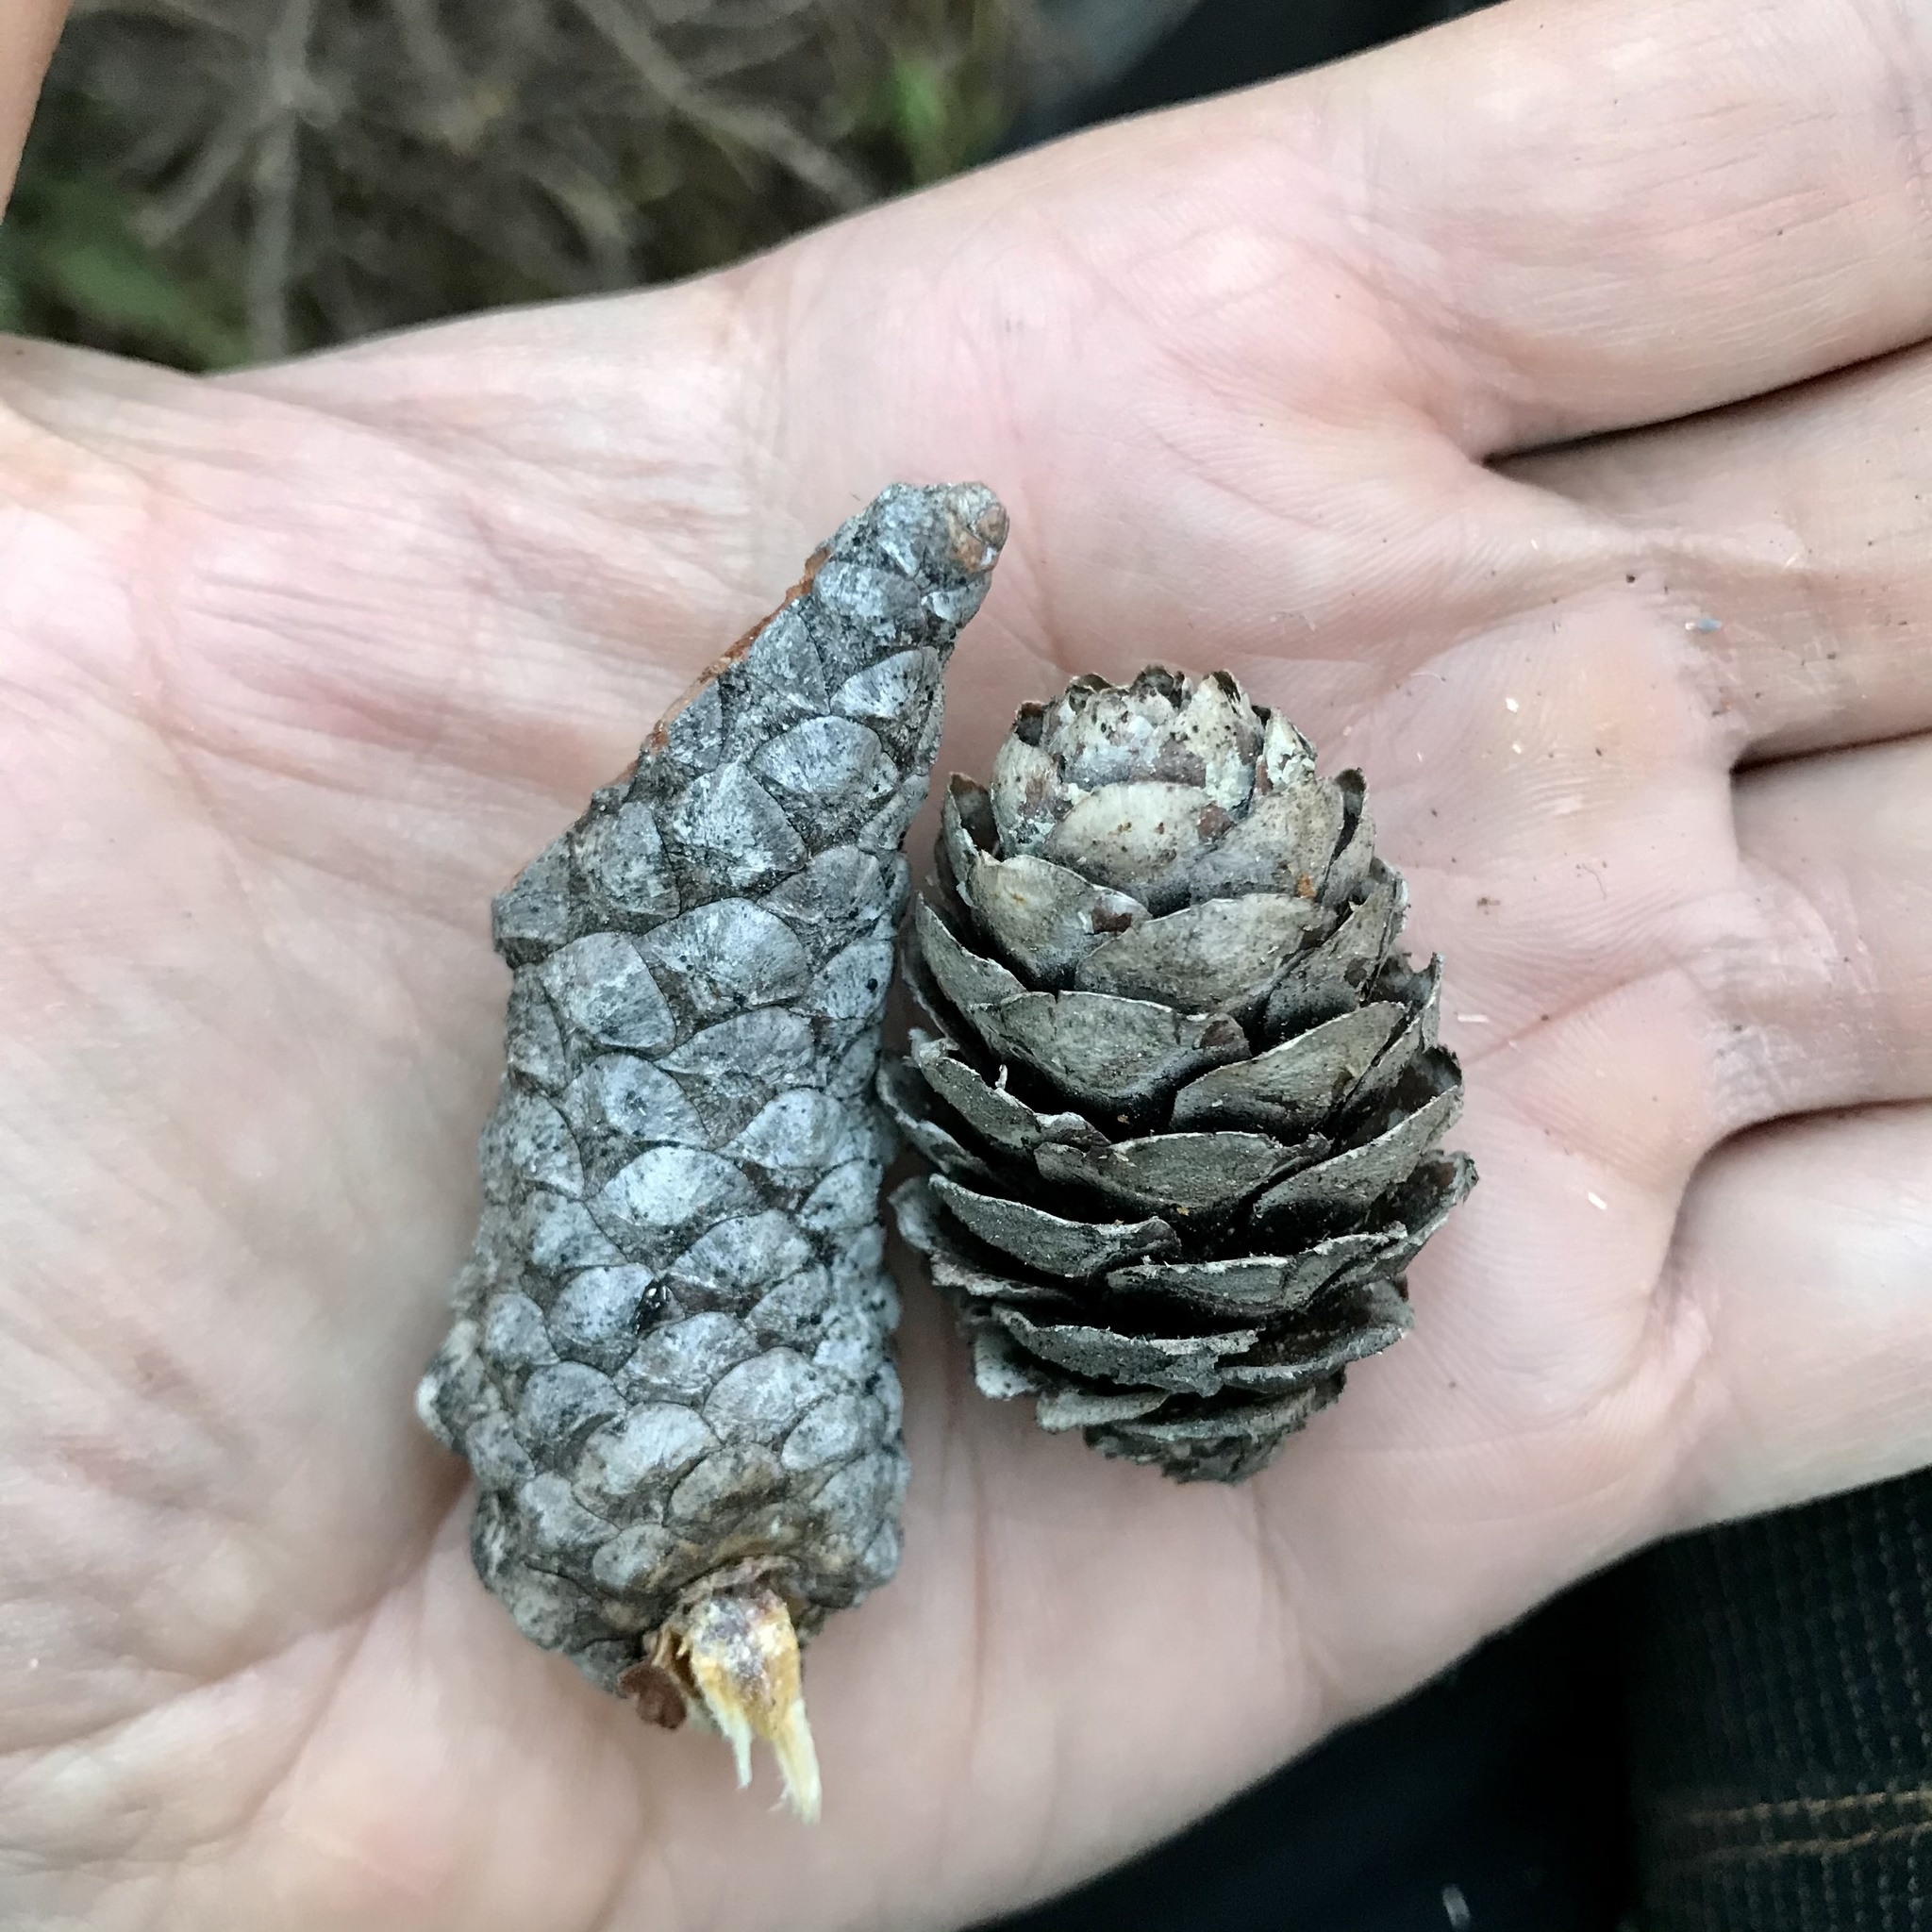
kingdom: Plantae
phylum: Tracheophyta
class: Pinopsida
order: Pinales
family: Pinaceae
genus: Pinus
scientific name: Pinus banksiana
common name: Jack pine
